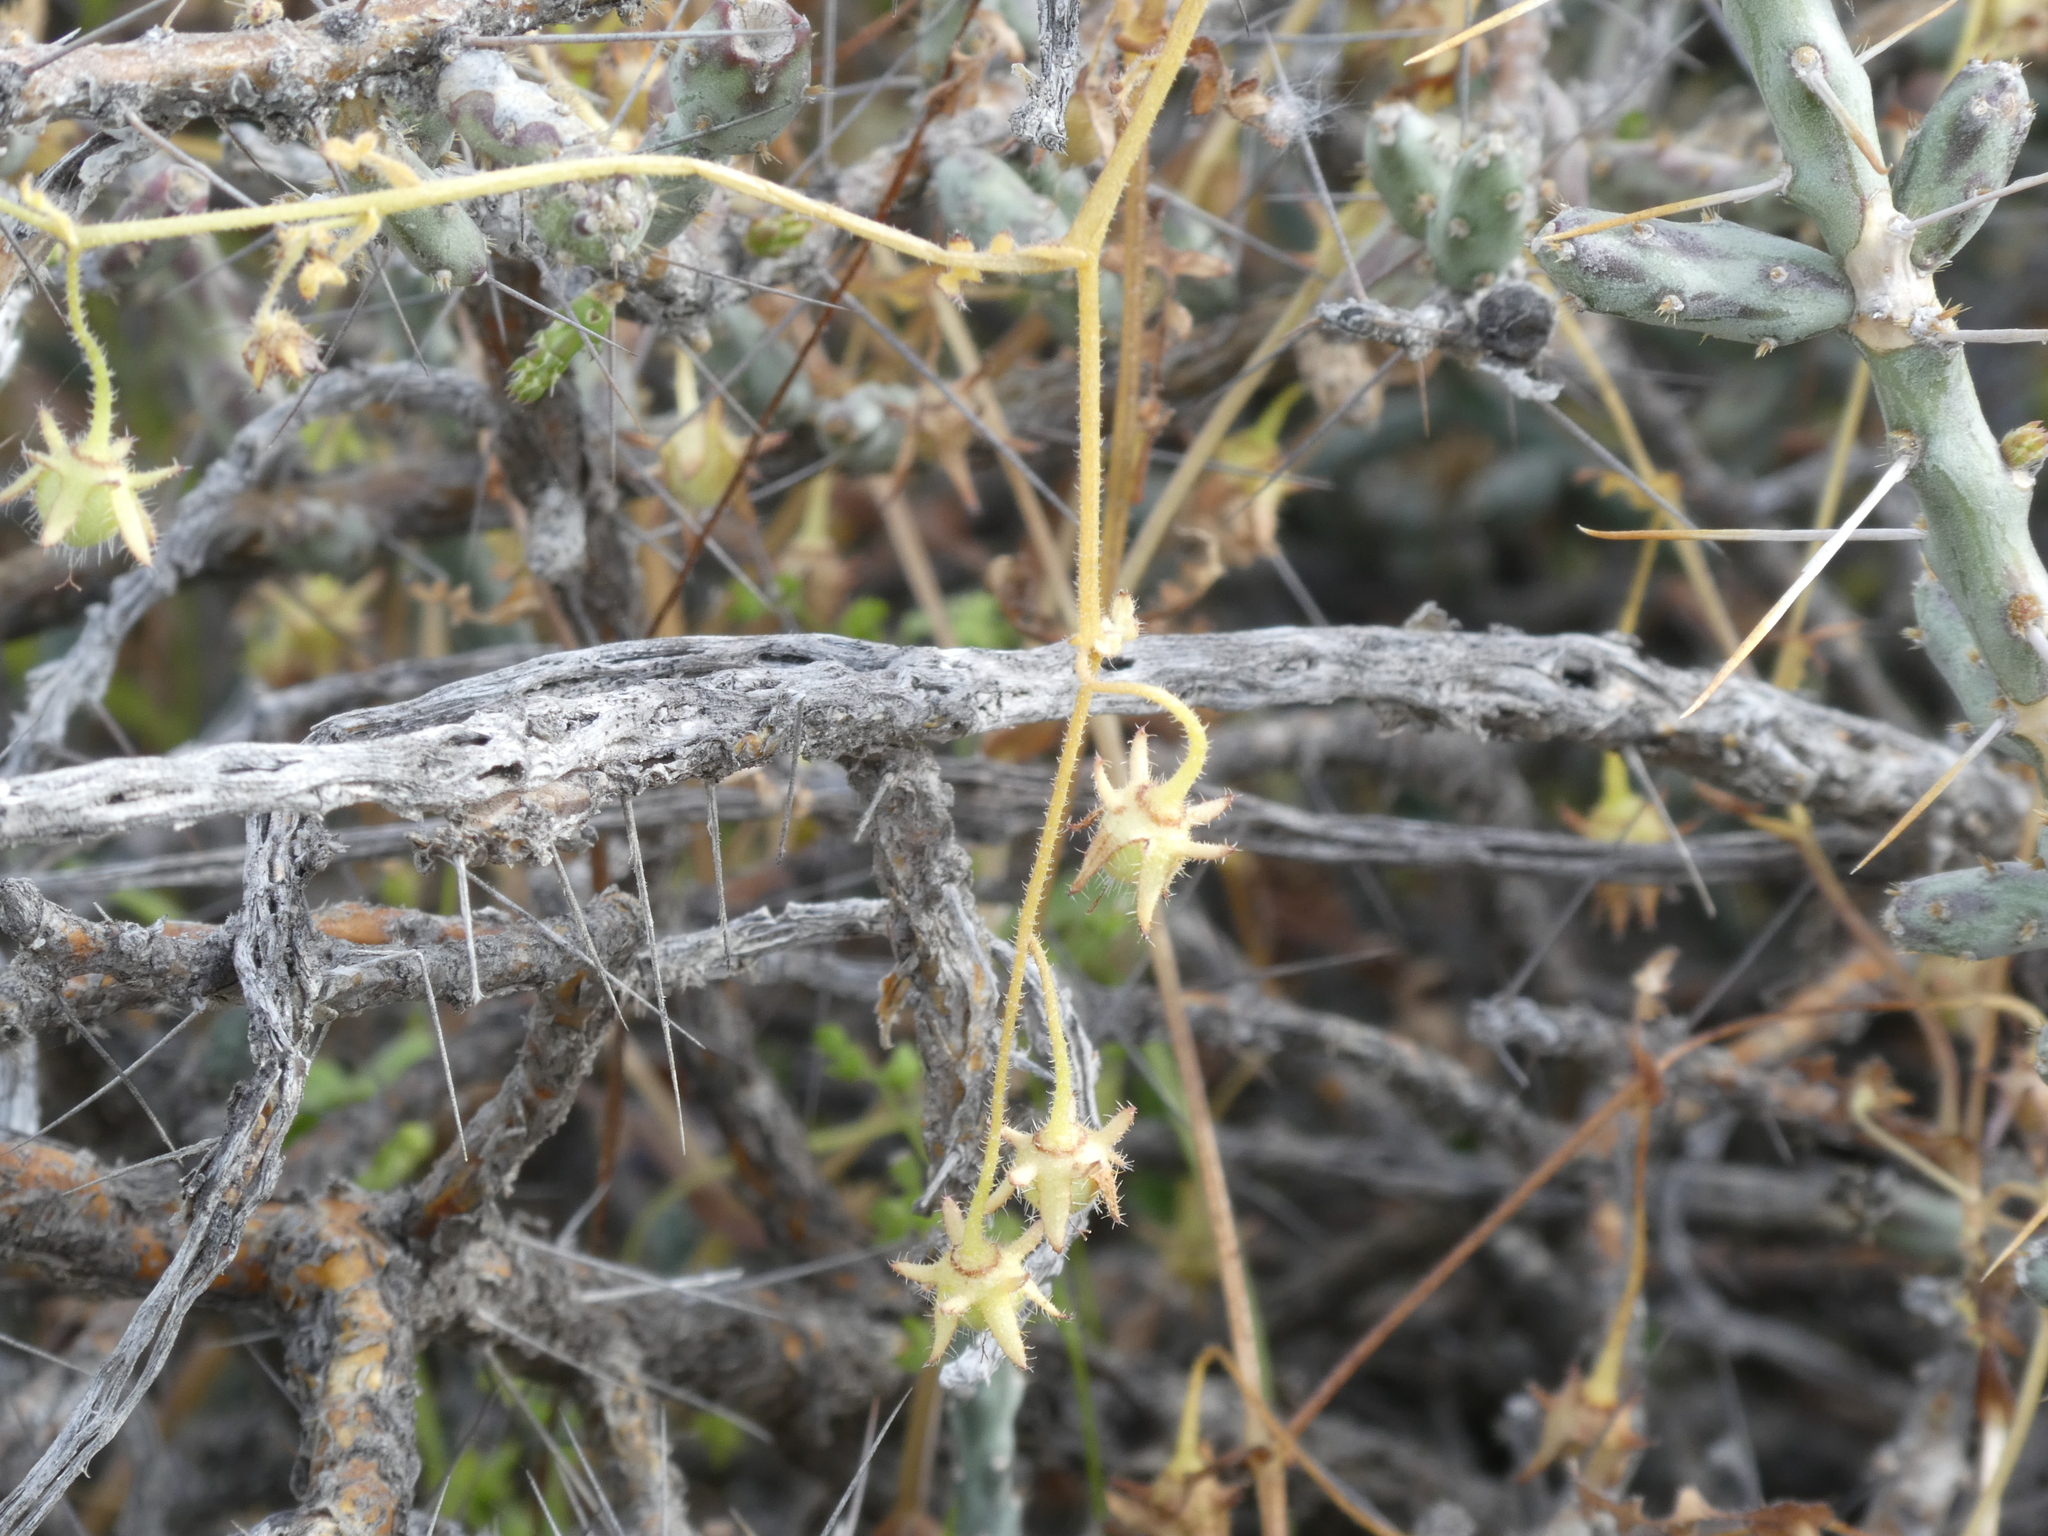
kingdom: Plantae
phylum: Tracheophyta
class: Magnoliopsida
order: Boraginales
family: Hydrophyllaceae
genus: Pholistoma
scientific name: Pholistoma auritum
